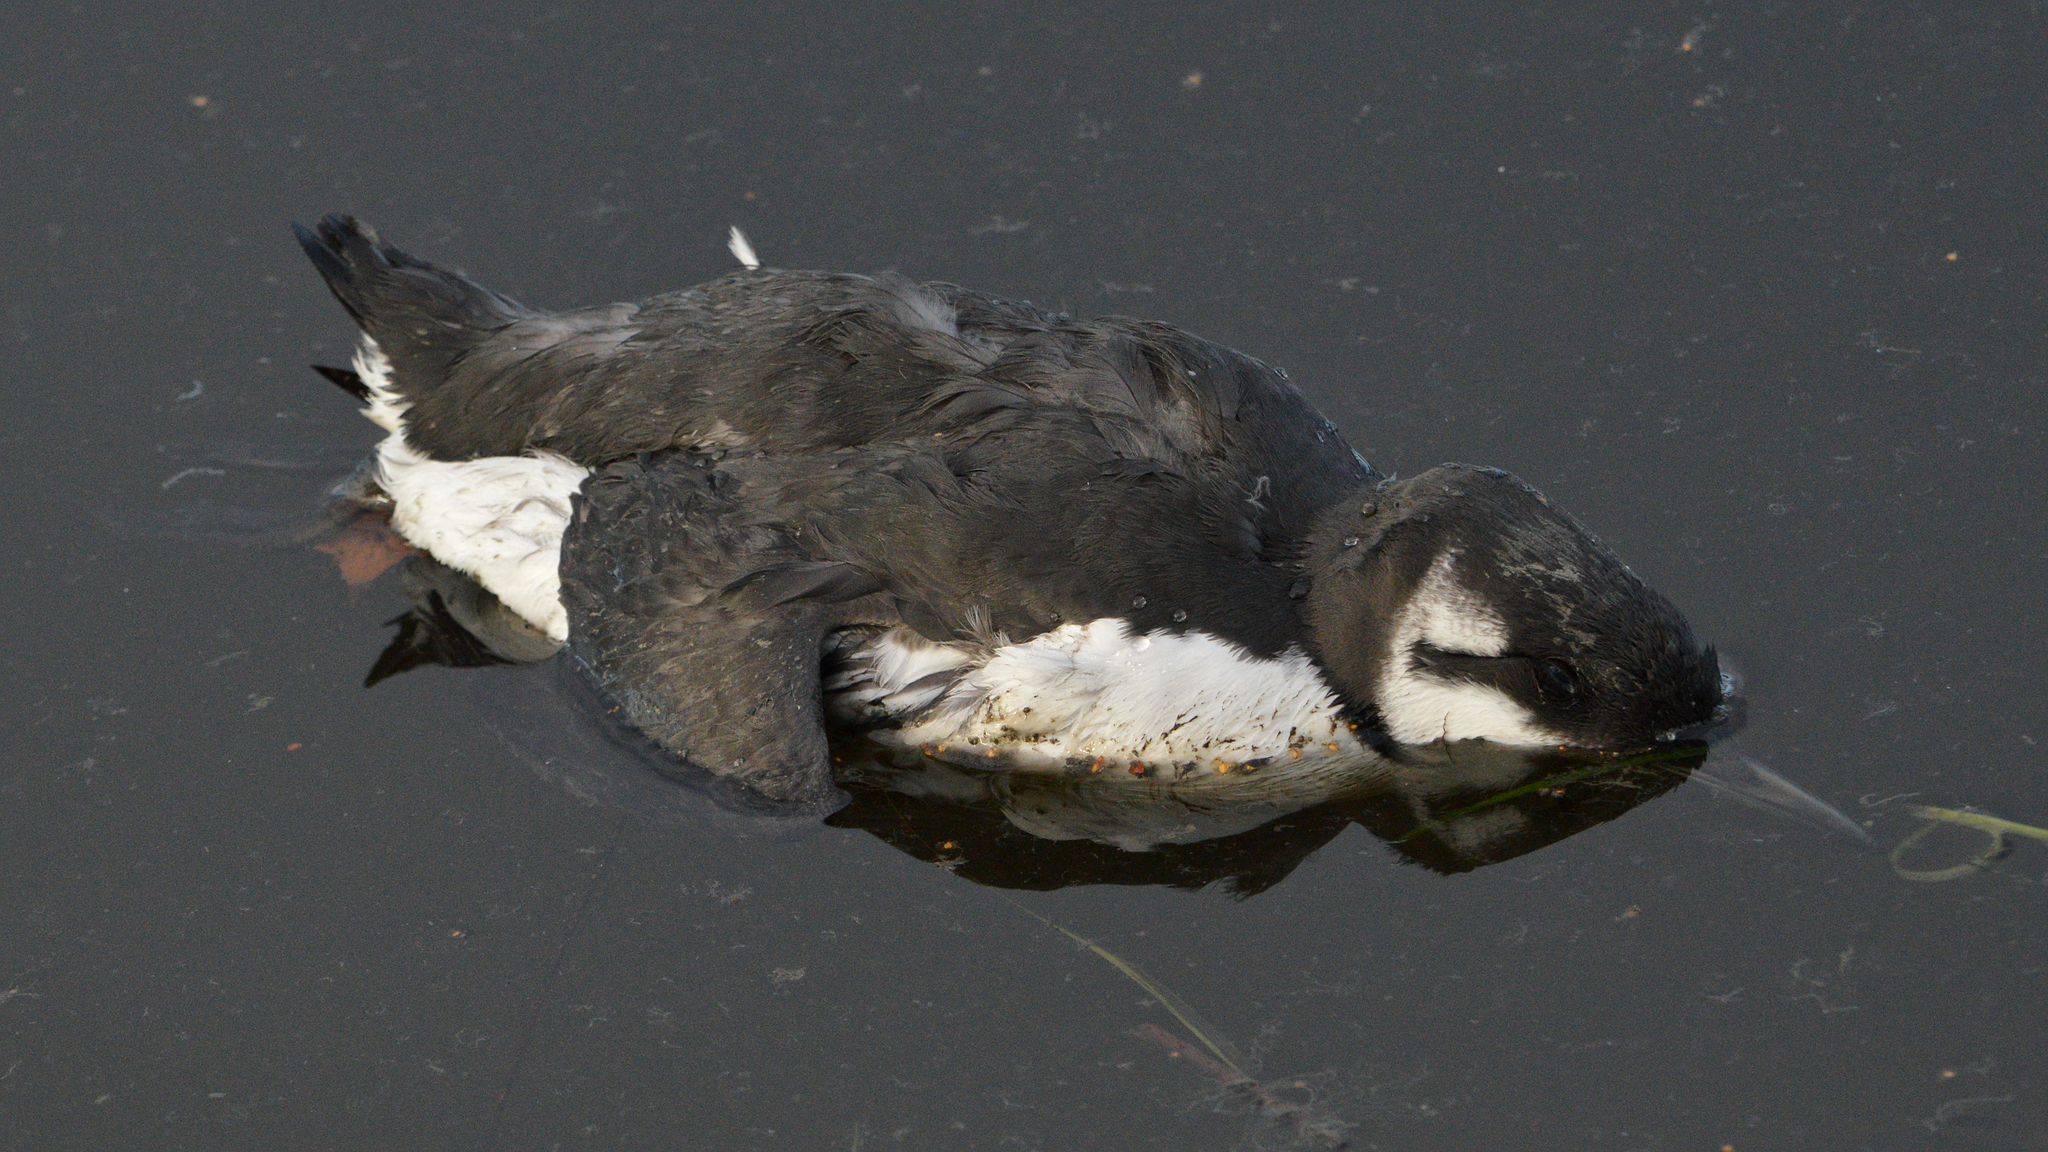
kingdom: Animalia
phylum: Chordata
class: Aves
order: Charadriiformes
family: Alcidae
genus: Uria
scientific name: Uria aalge
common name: Common murre
